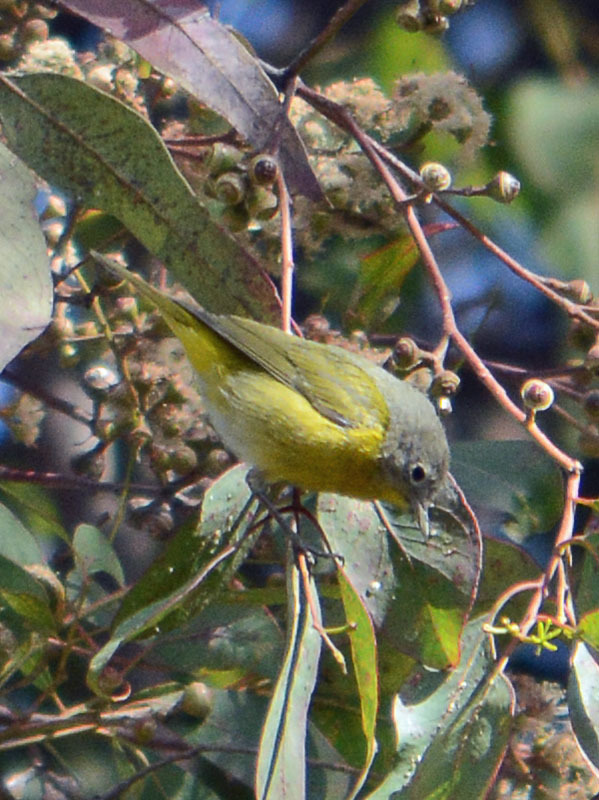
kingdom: Animalia
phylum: Chordata
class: Aves
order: Passeriformes
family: Parulidae
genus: Leiothlypis
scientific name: Leiothlypis ruficapilla
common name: Nashville warbler
